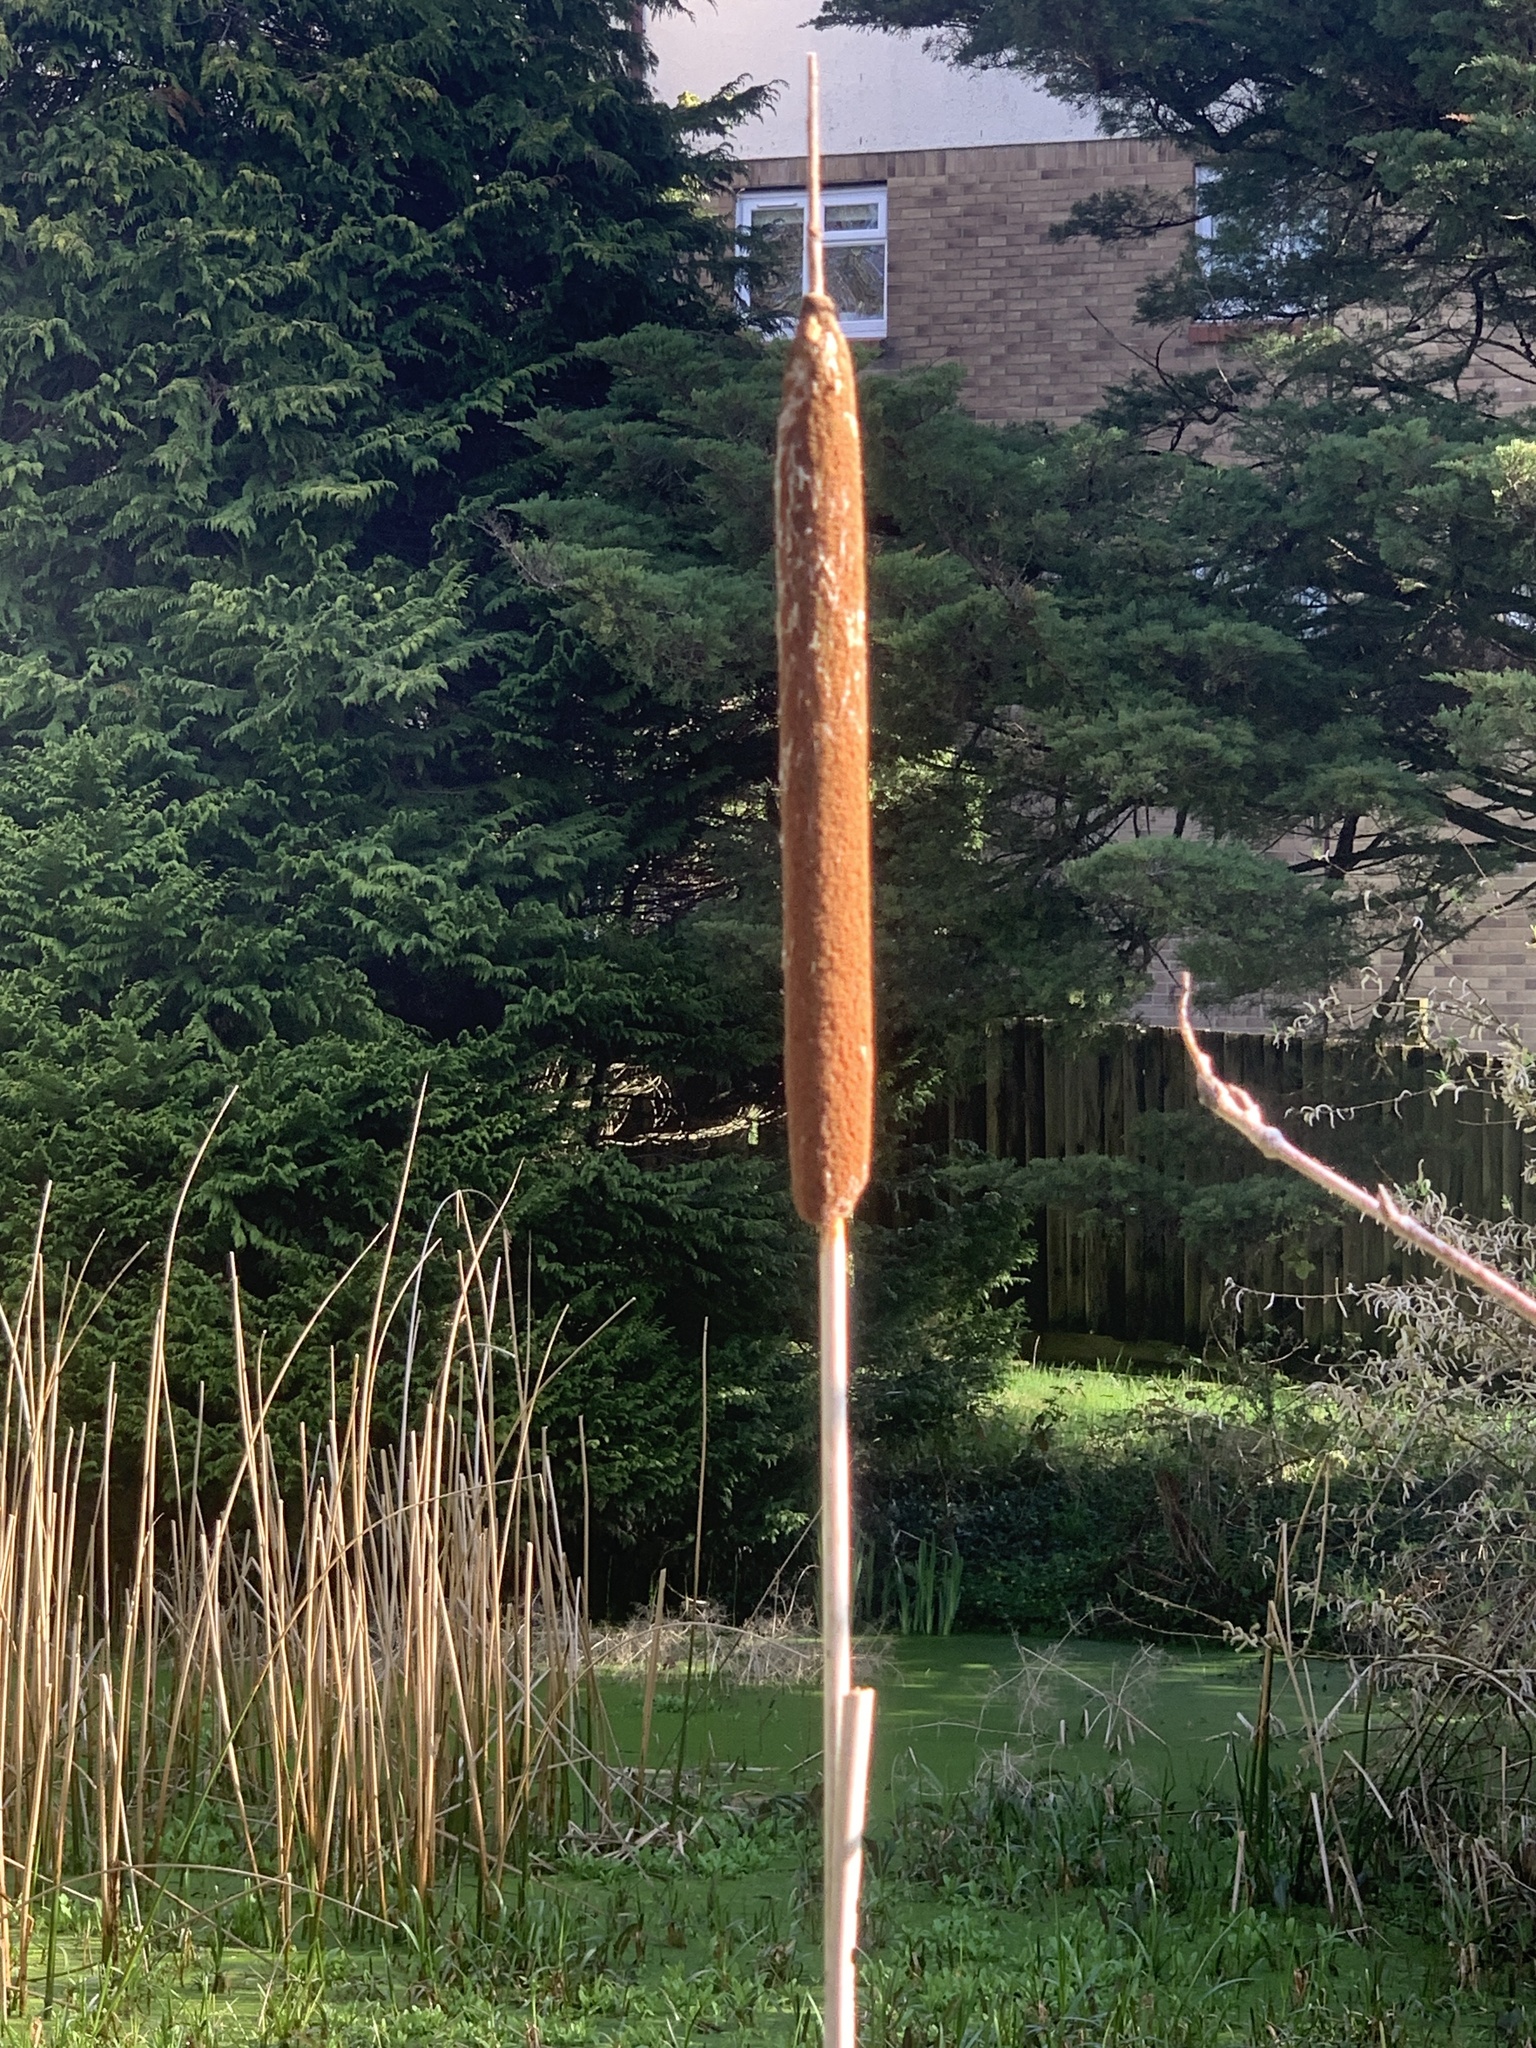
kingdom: Plantae
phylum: Tracheophyta
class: Liliopsida
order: Poales
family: Typhaceae
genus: Typha
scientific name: Typha latifolia
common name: Broadleaf cattail
